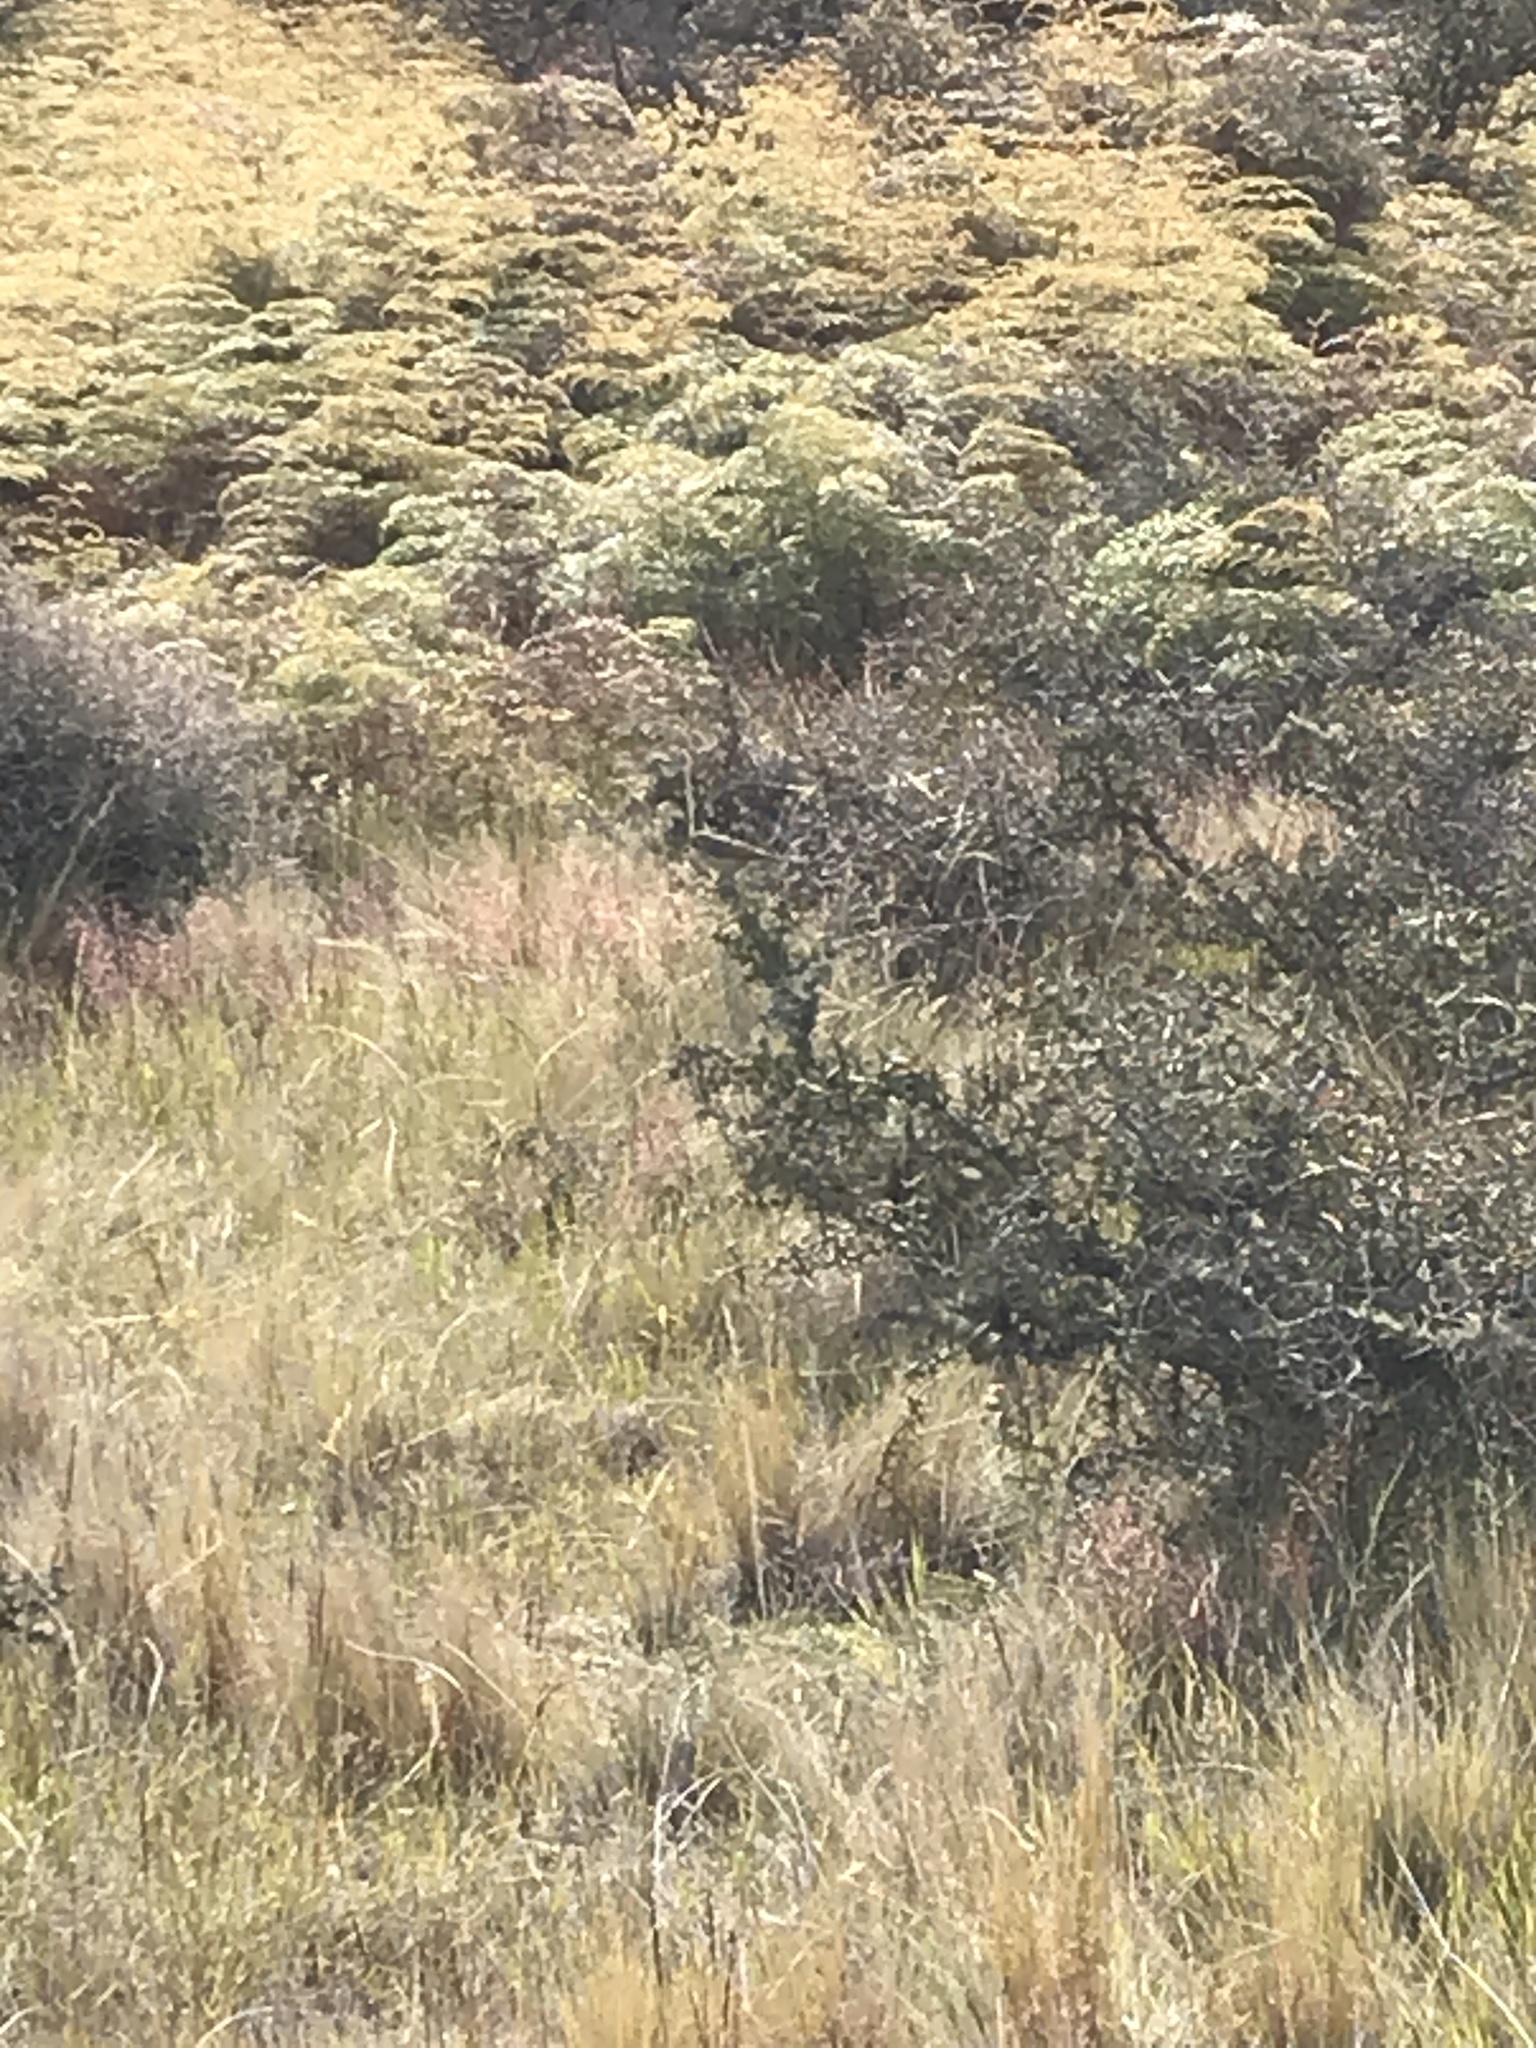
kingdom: Animalia
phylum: Chordata
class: Aves
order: Passeriformes
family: Zosteropidae
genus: Zosterops
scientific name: Zosterops lateralis
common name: Silvereye
